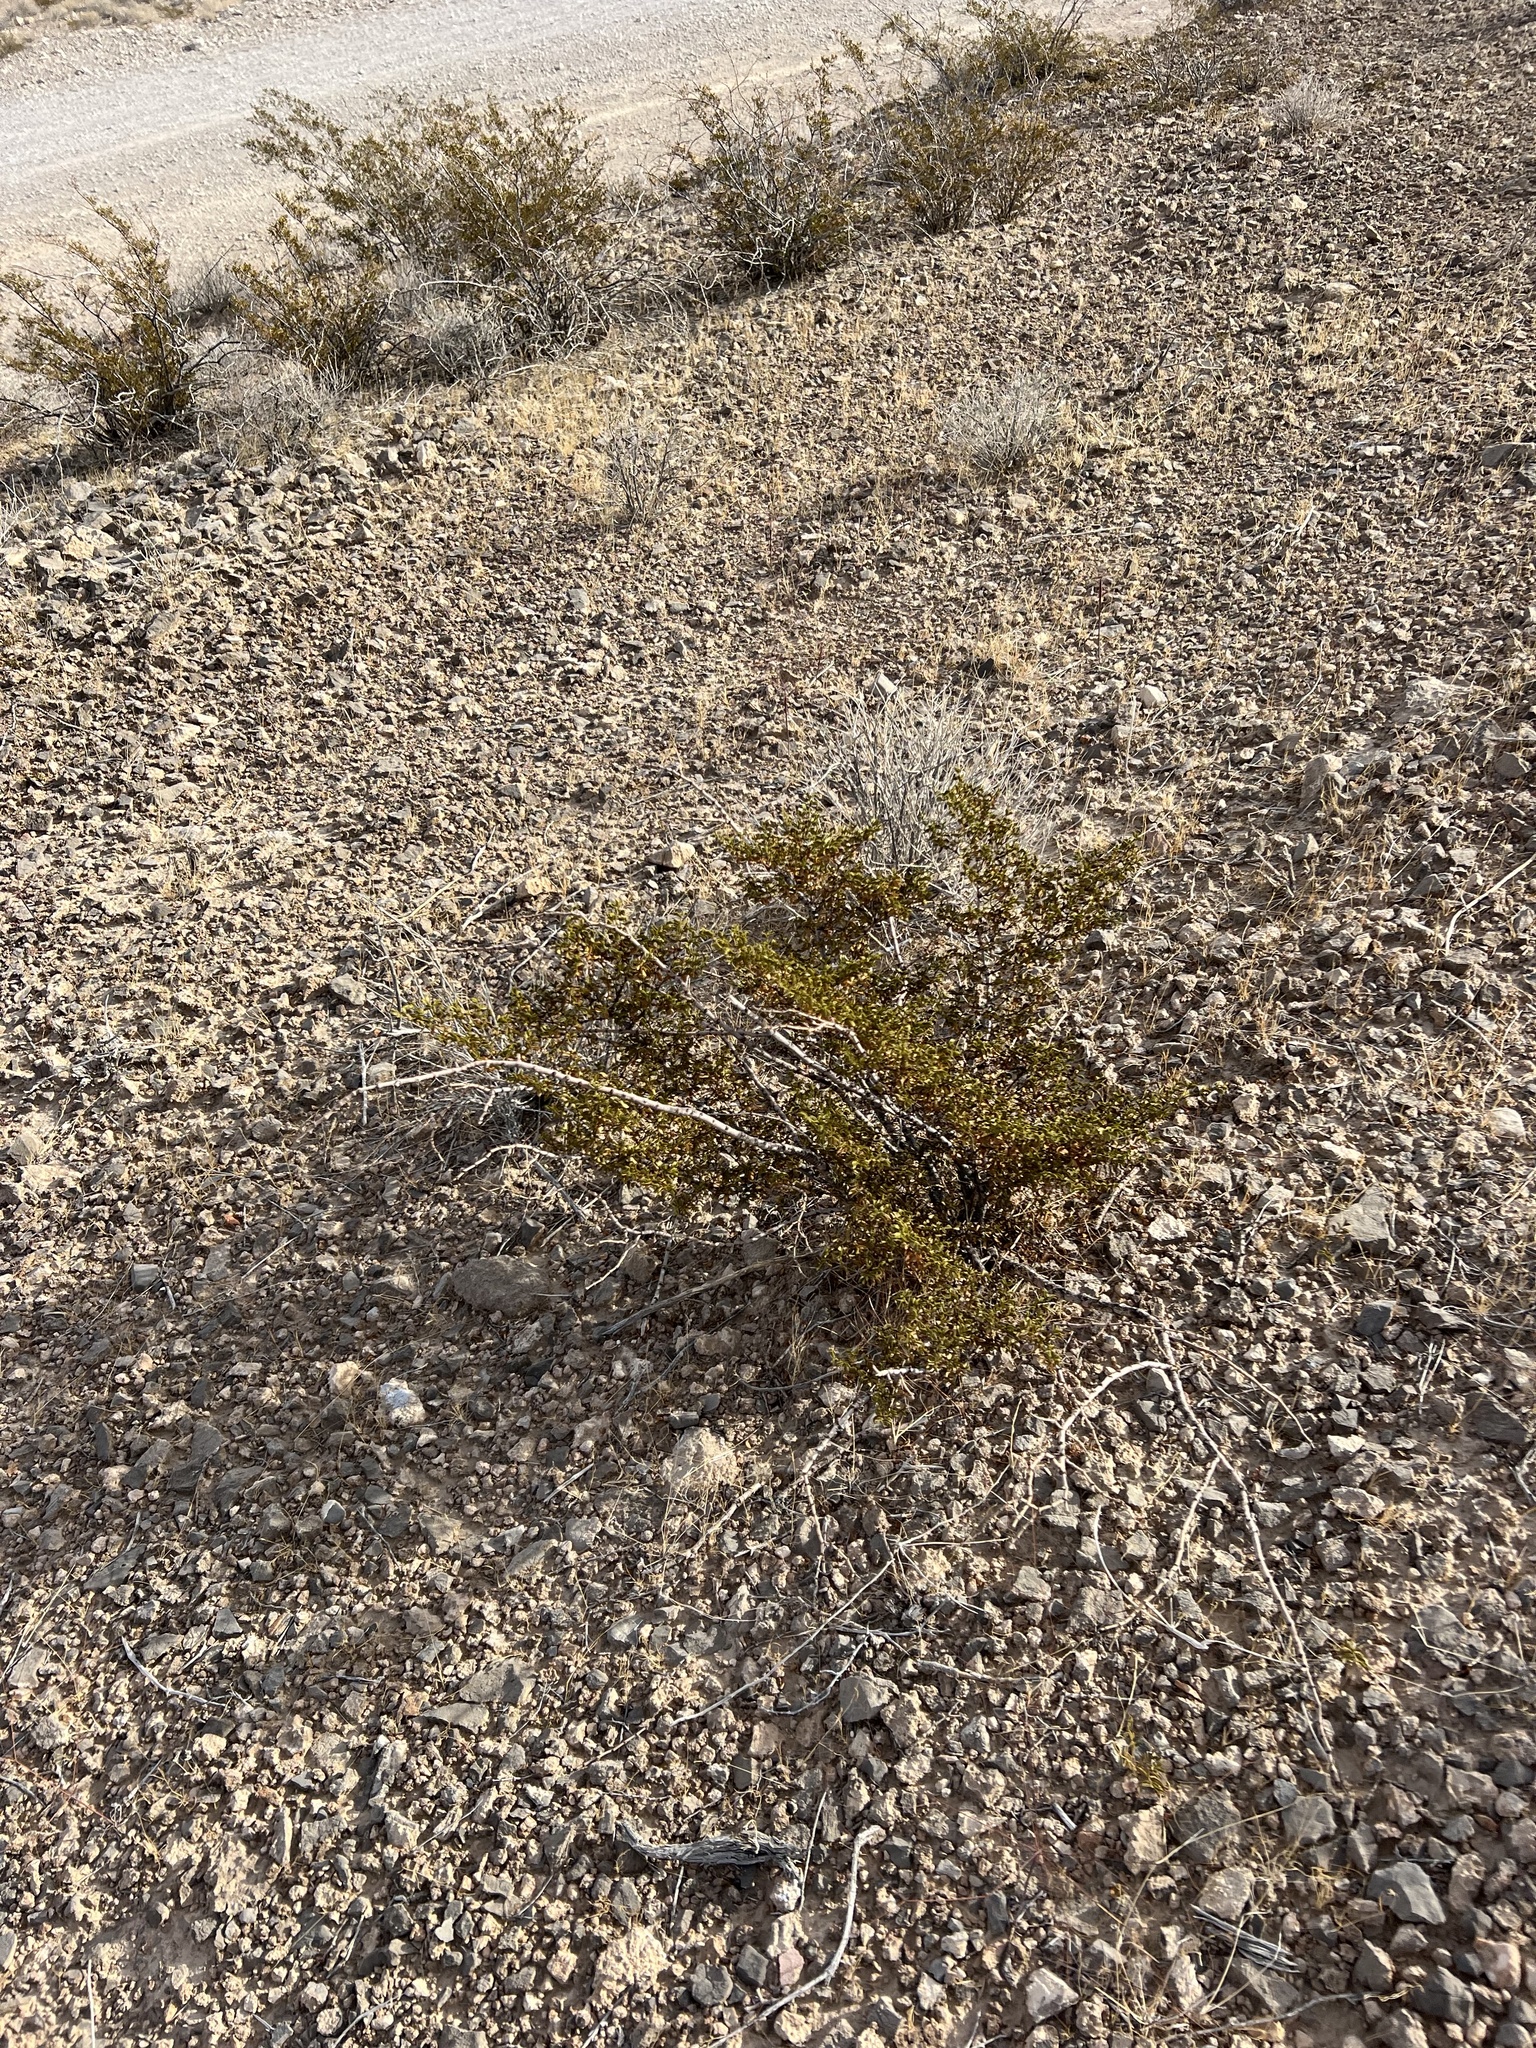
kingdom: Plantae
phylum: Tracheophyta
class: Magnoliopsida
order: Zygophyllales
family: Zygophyllaceae
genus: Larrea
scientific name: Larrea tridentata
